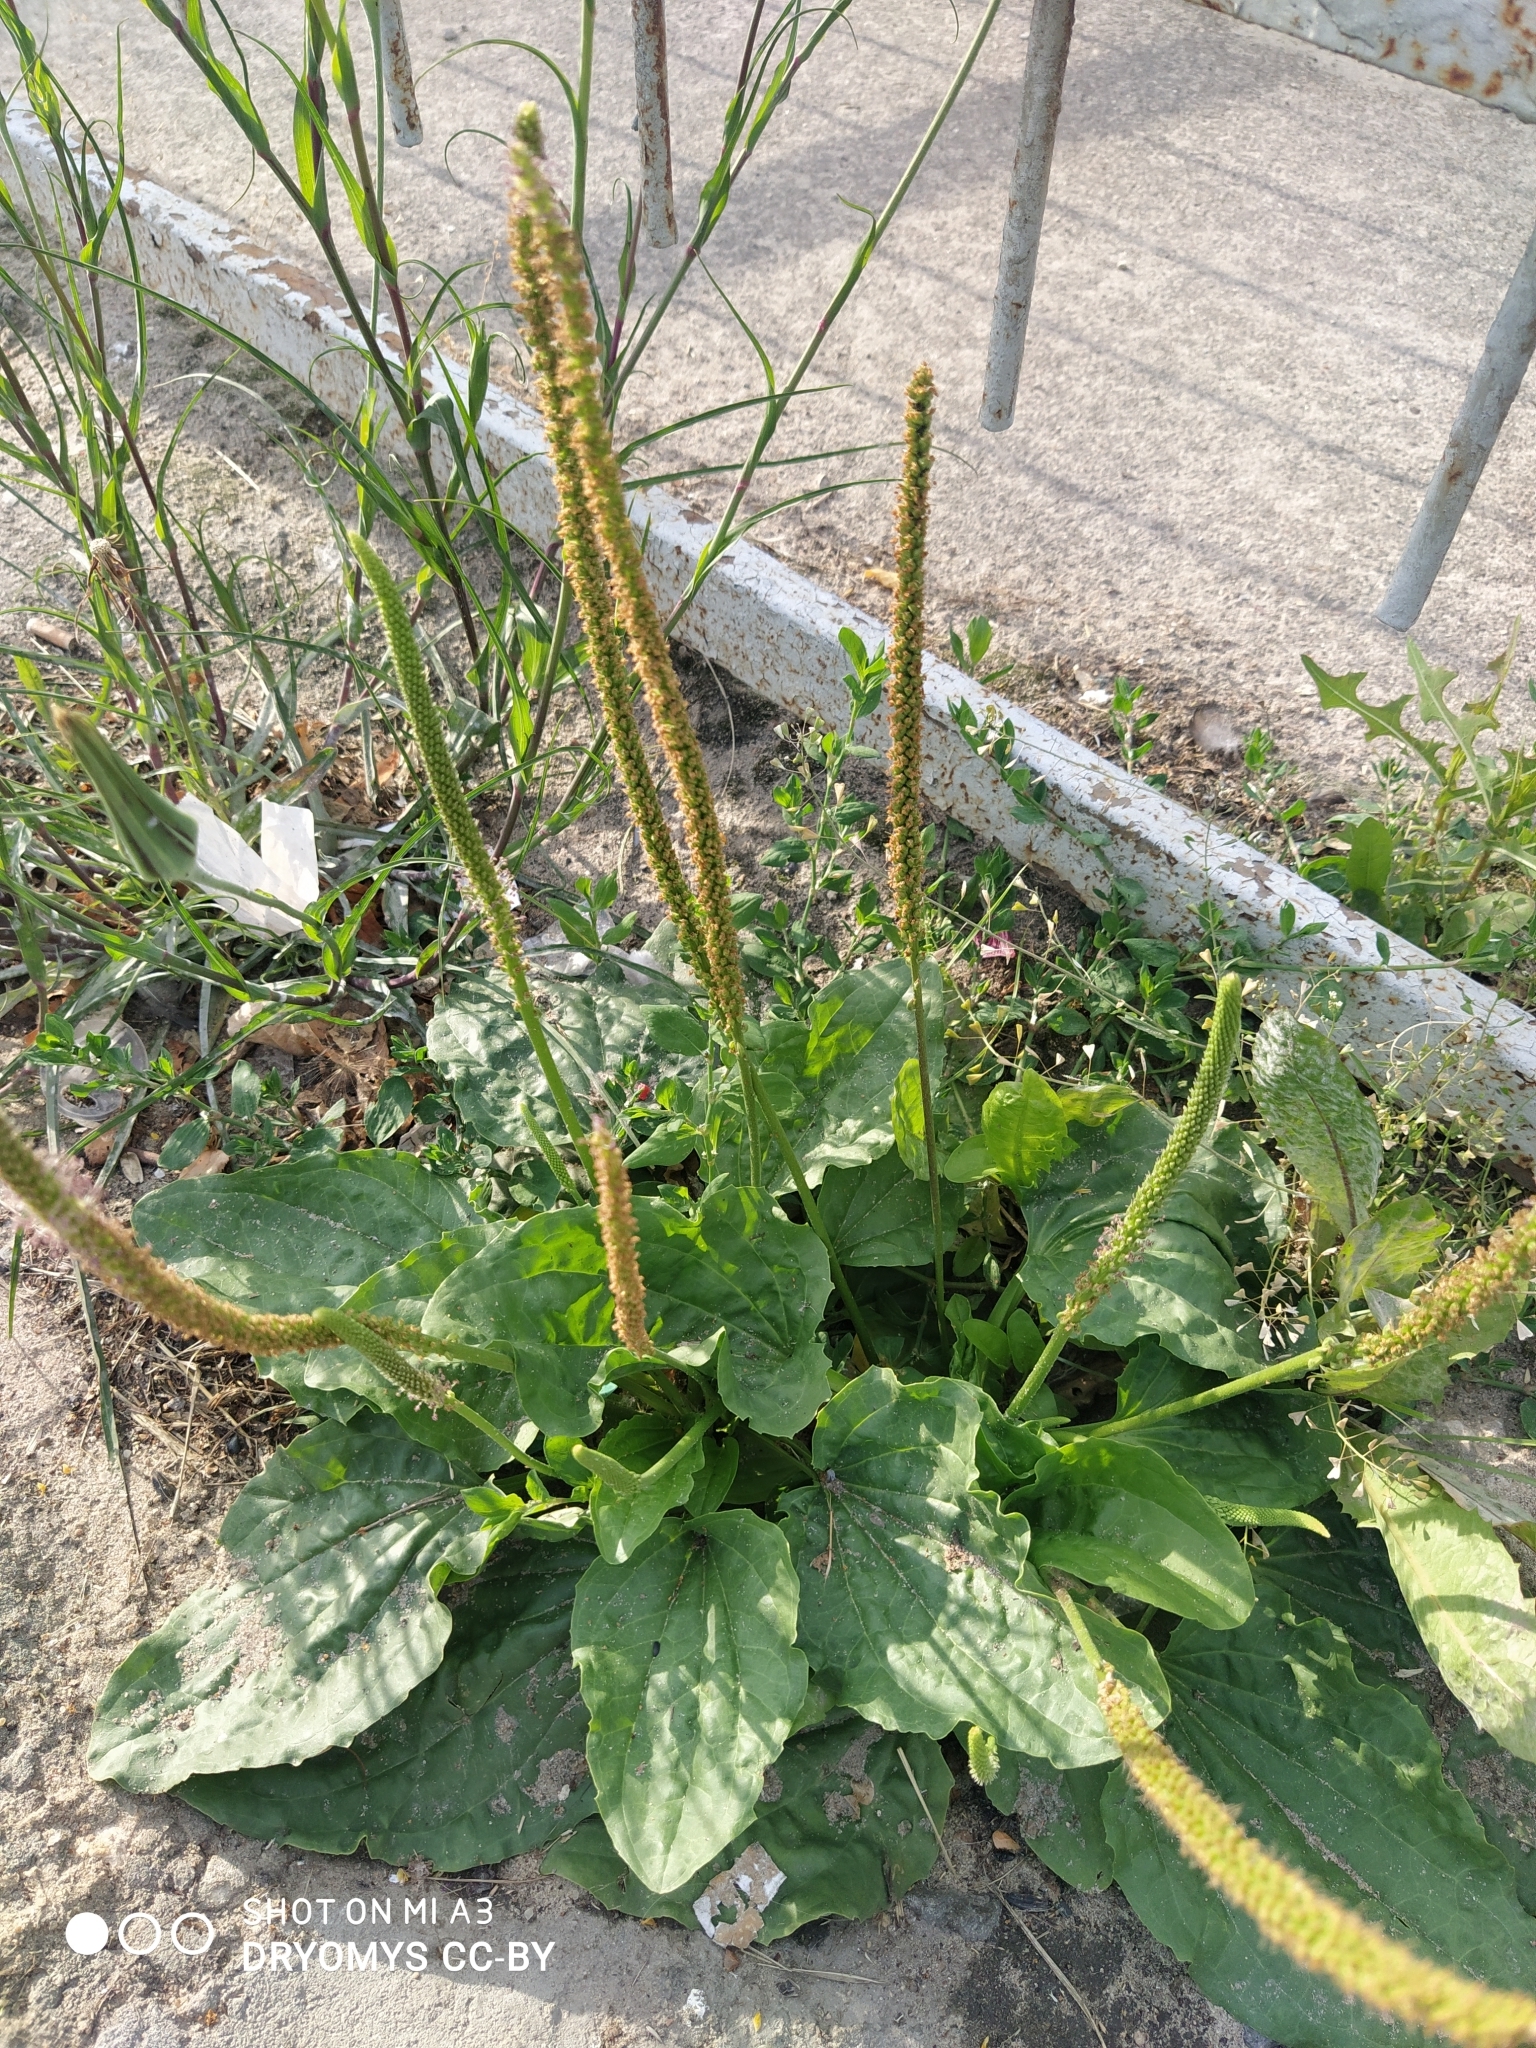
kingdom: Plantae
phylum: Tracheophyta
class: Magnoliopsida
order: Lamiales
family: Plantaginaceae
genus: Plantago
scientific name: Plantago major
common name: Common plantain
